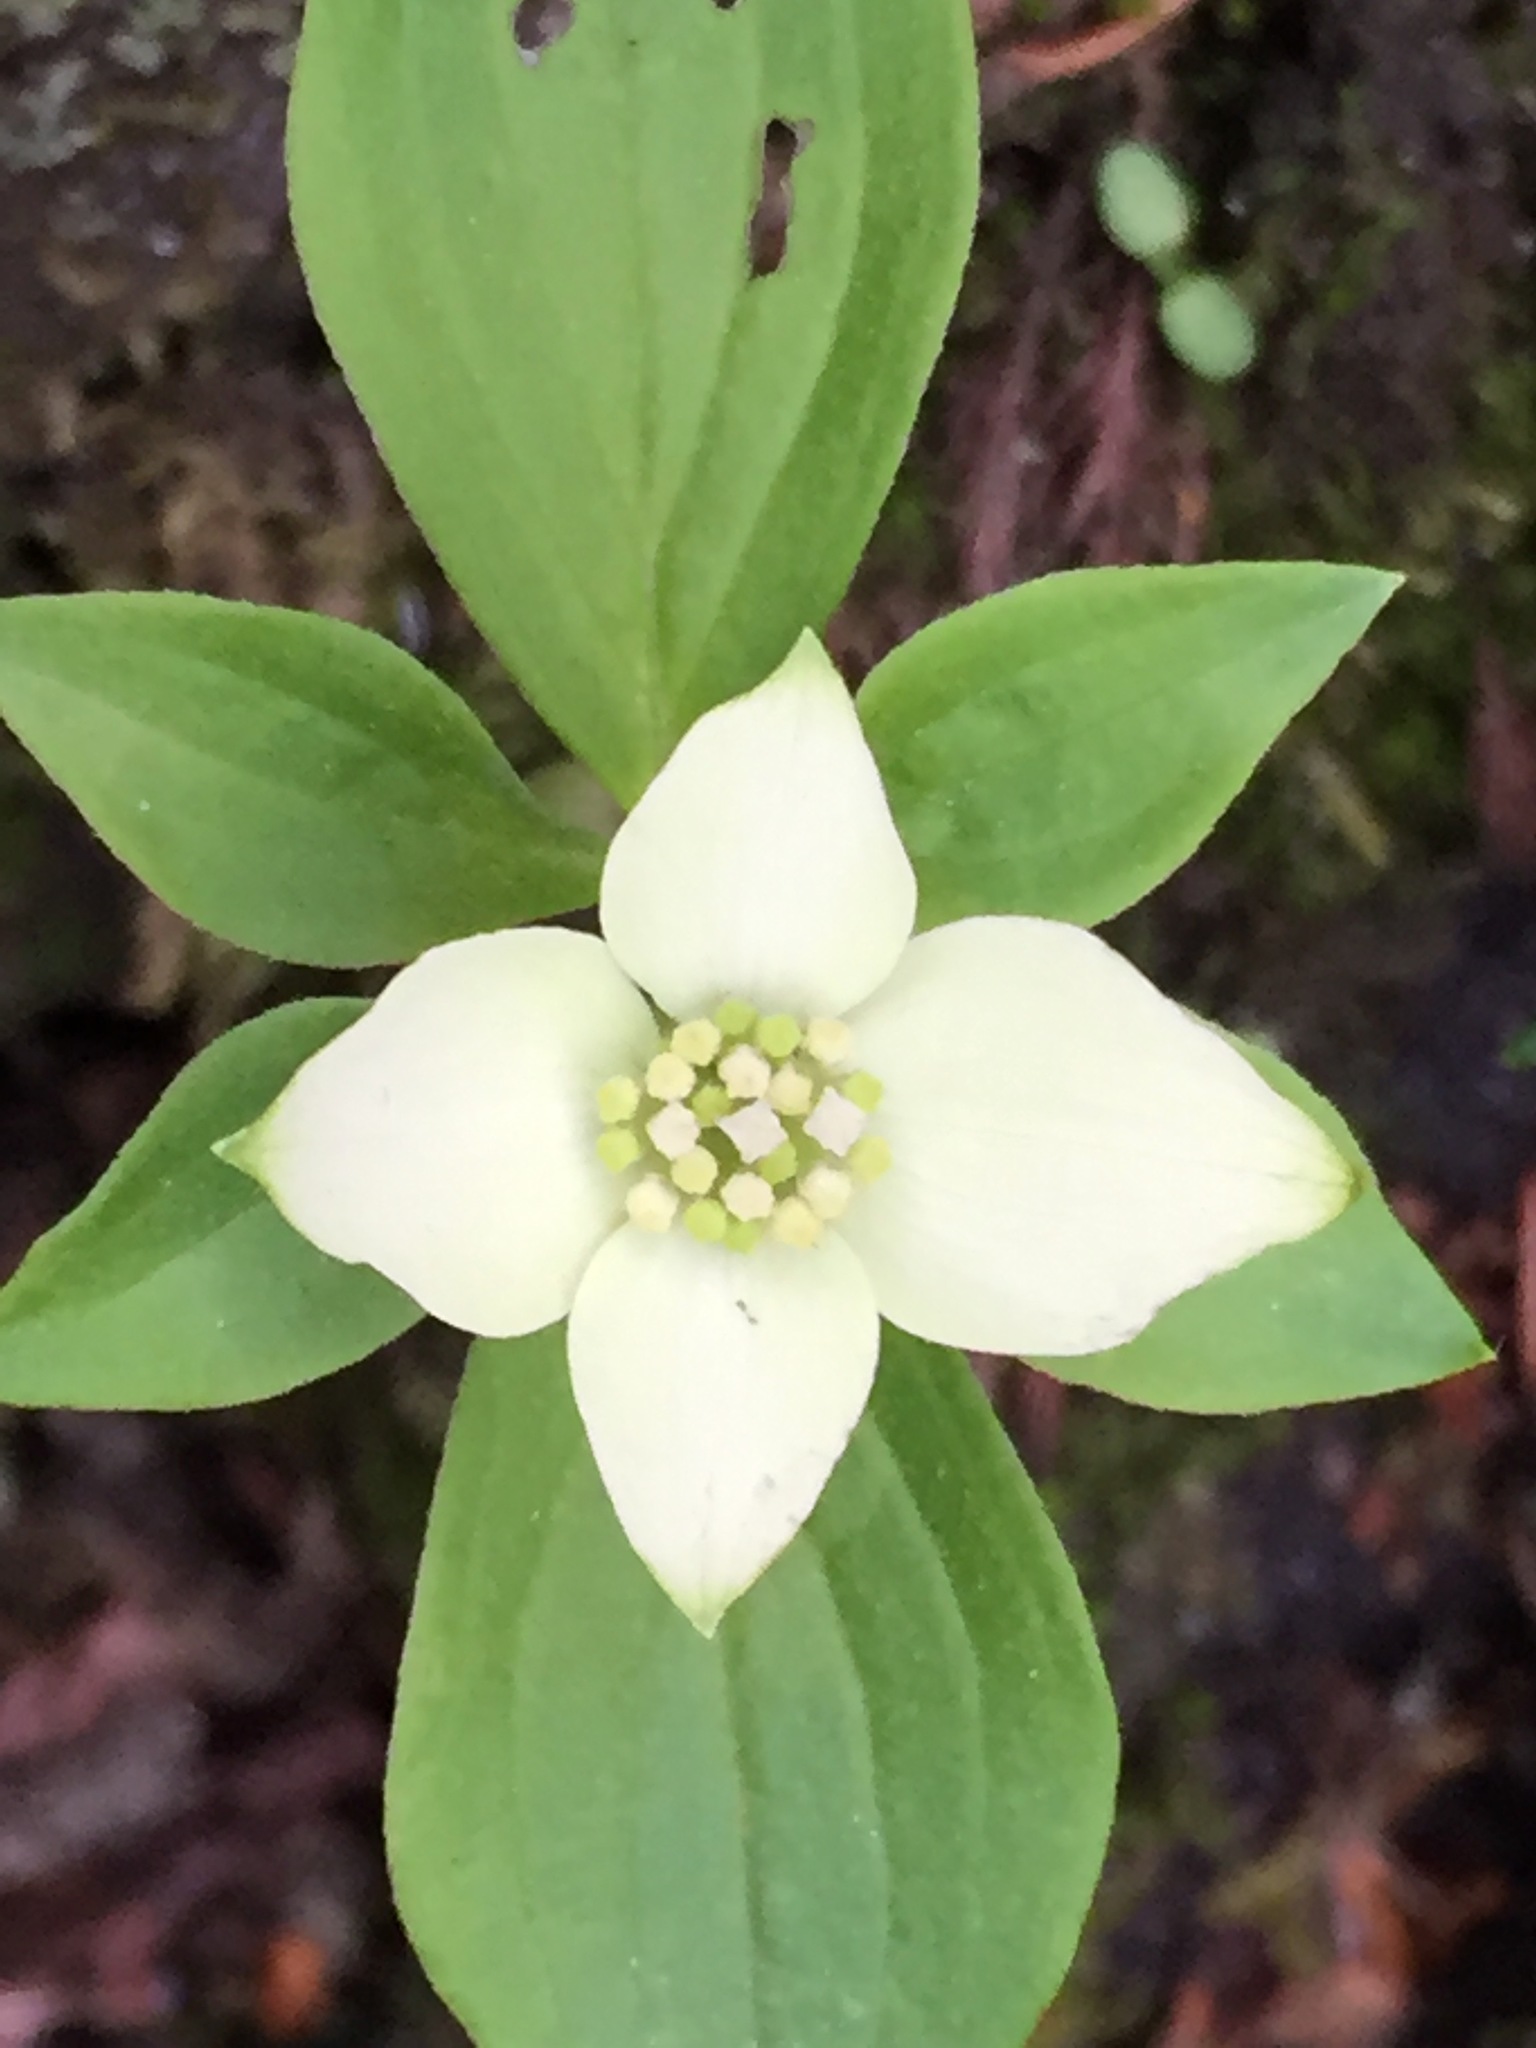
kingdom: Plantae
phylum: Tracheophyta
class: Magnoliopsida
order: Cornales
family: Cornaceae
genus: Cornus
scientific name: Cornus canadensis
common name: Creeping dogwood
